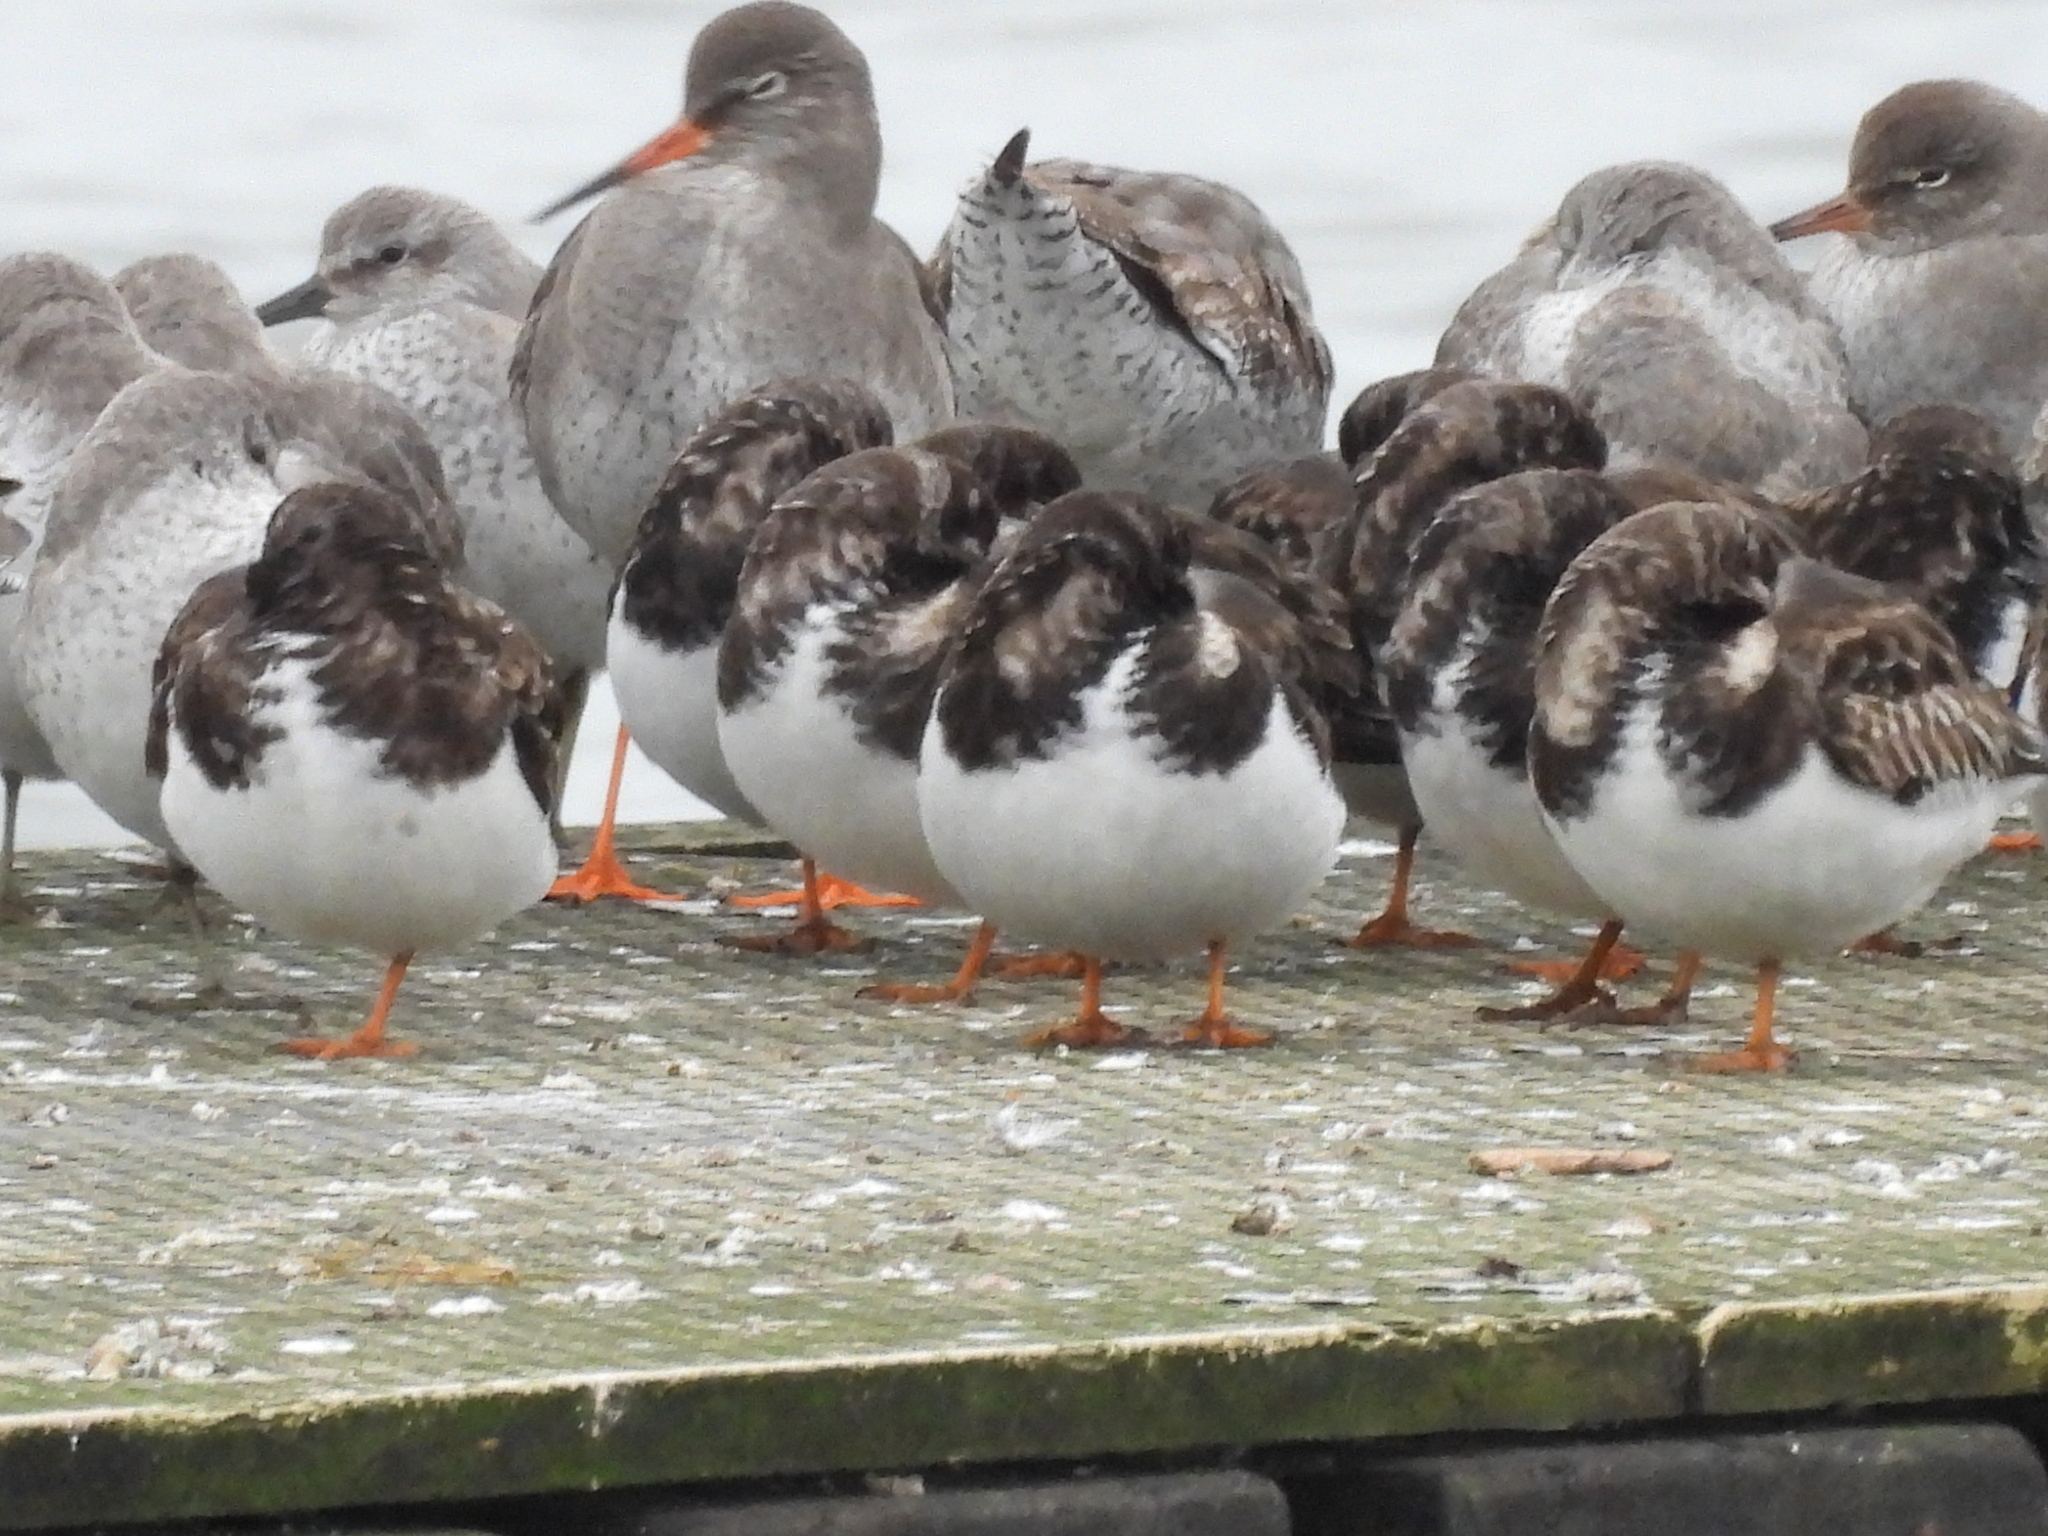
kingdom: Animalia
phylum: Chordata
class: Aves
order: Charadriiformes
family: Scolopacidae
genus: Arenaria
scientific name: Arenaria interpres
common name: Ruddy turnstone
